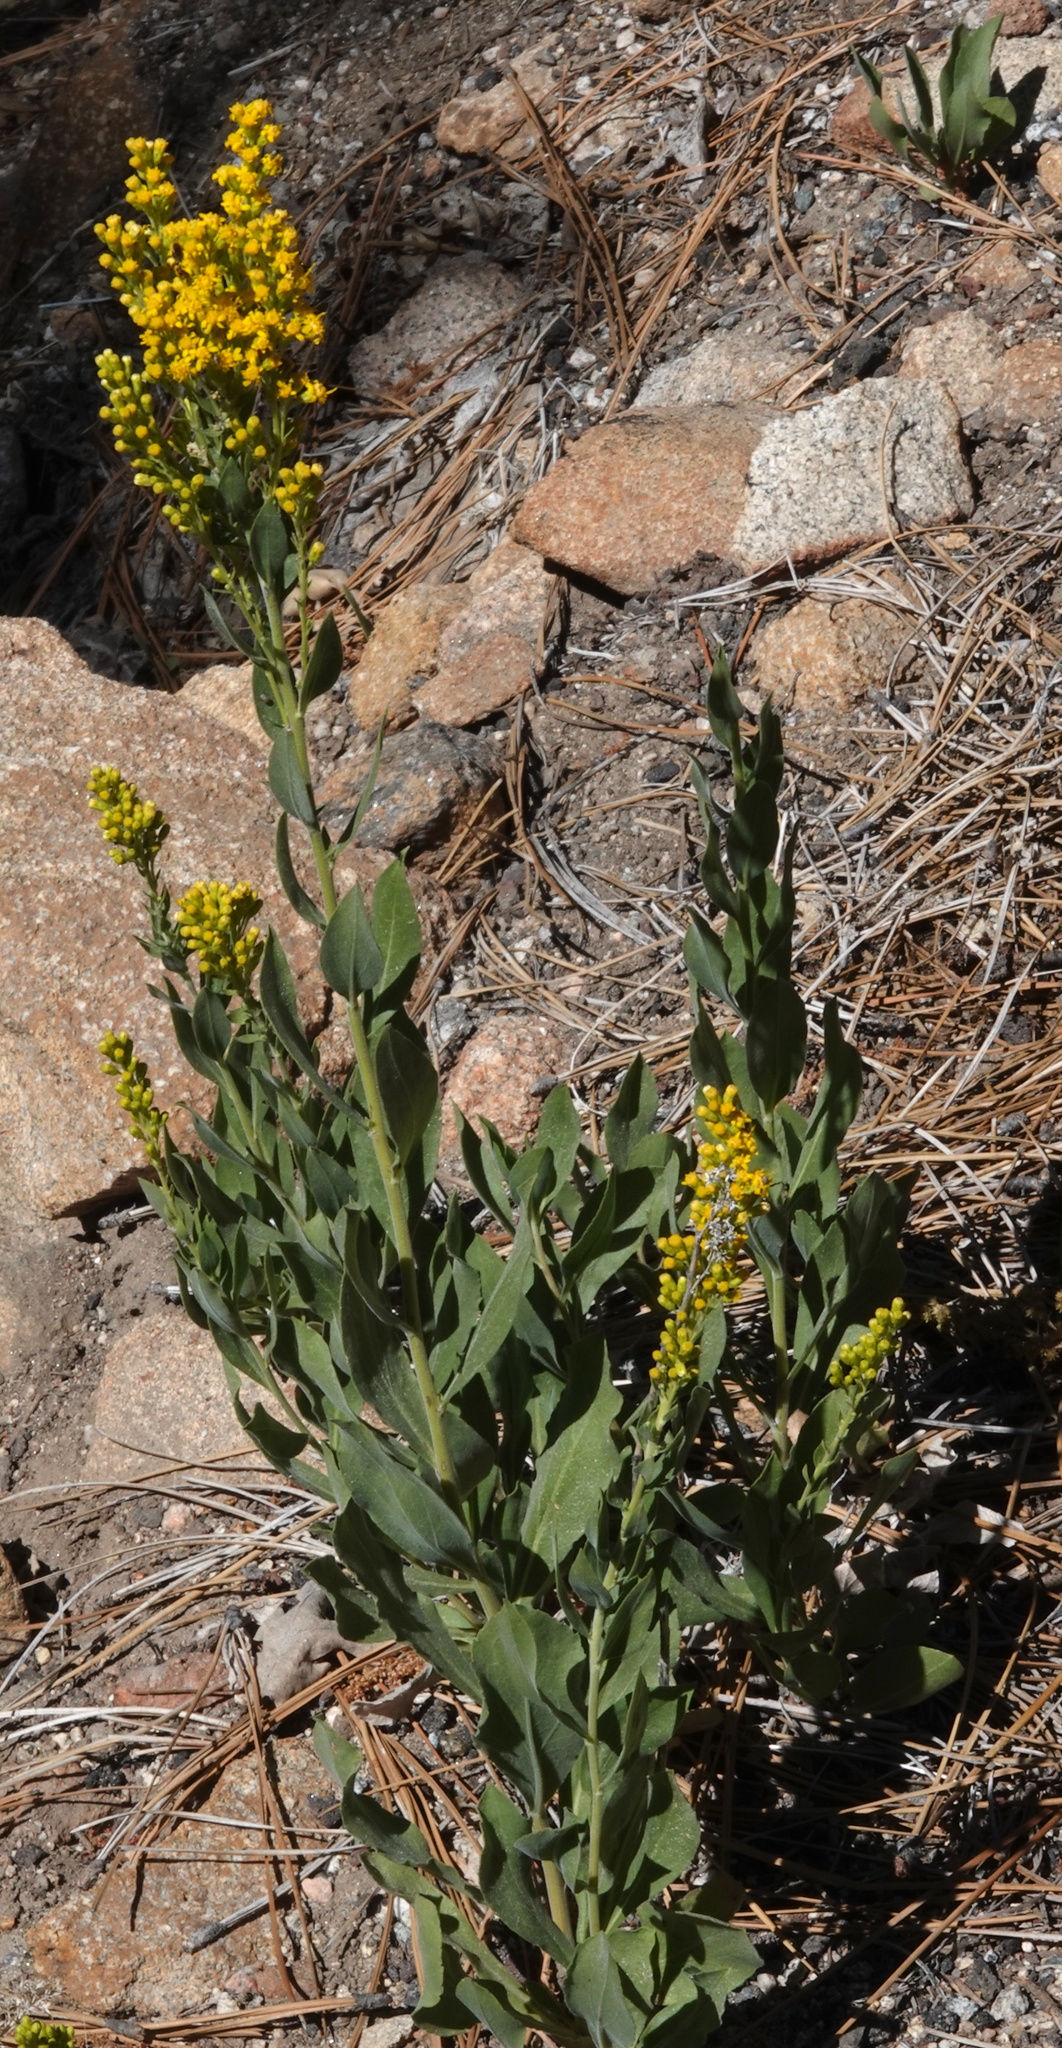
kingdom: Plantae
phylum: Tracheophyta
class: Magnoliopsida
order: Asterales
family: Asteraceae
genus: Solidago
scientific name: Solidago velutina
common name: Three-nerve goldenrod
